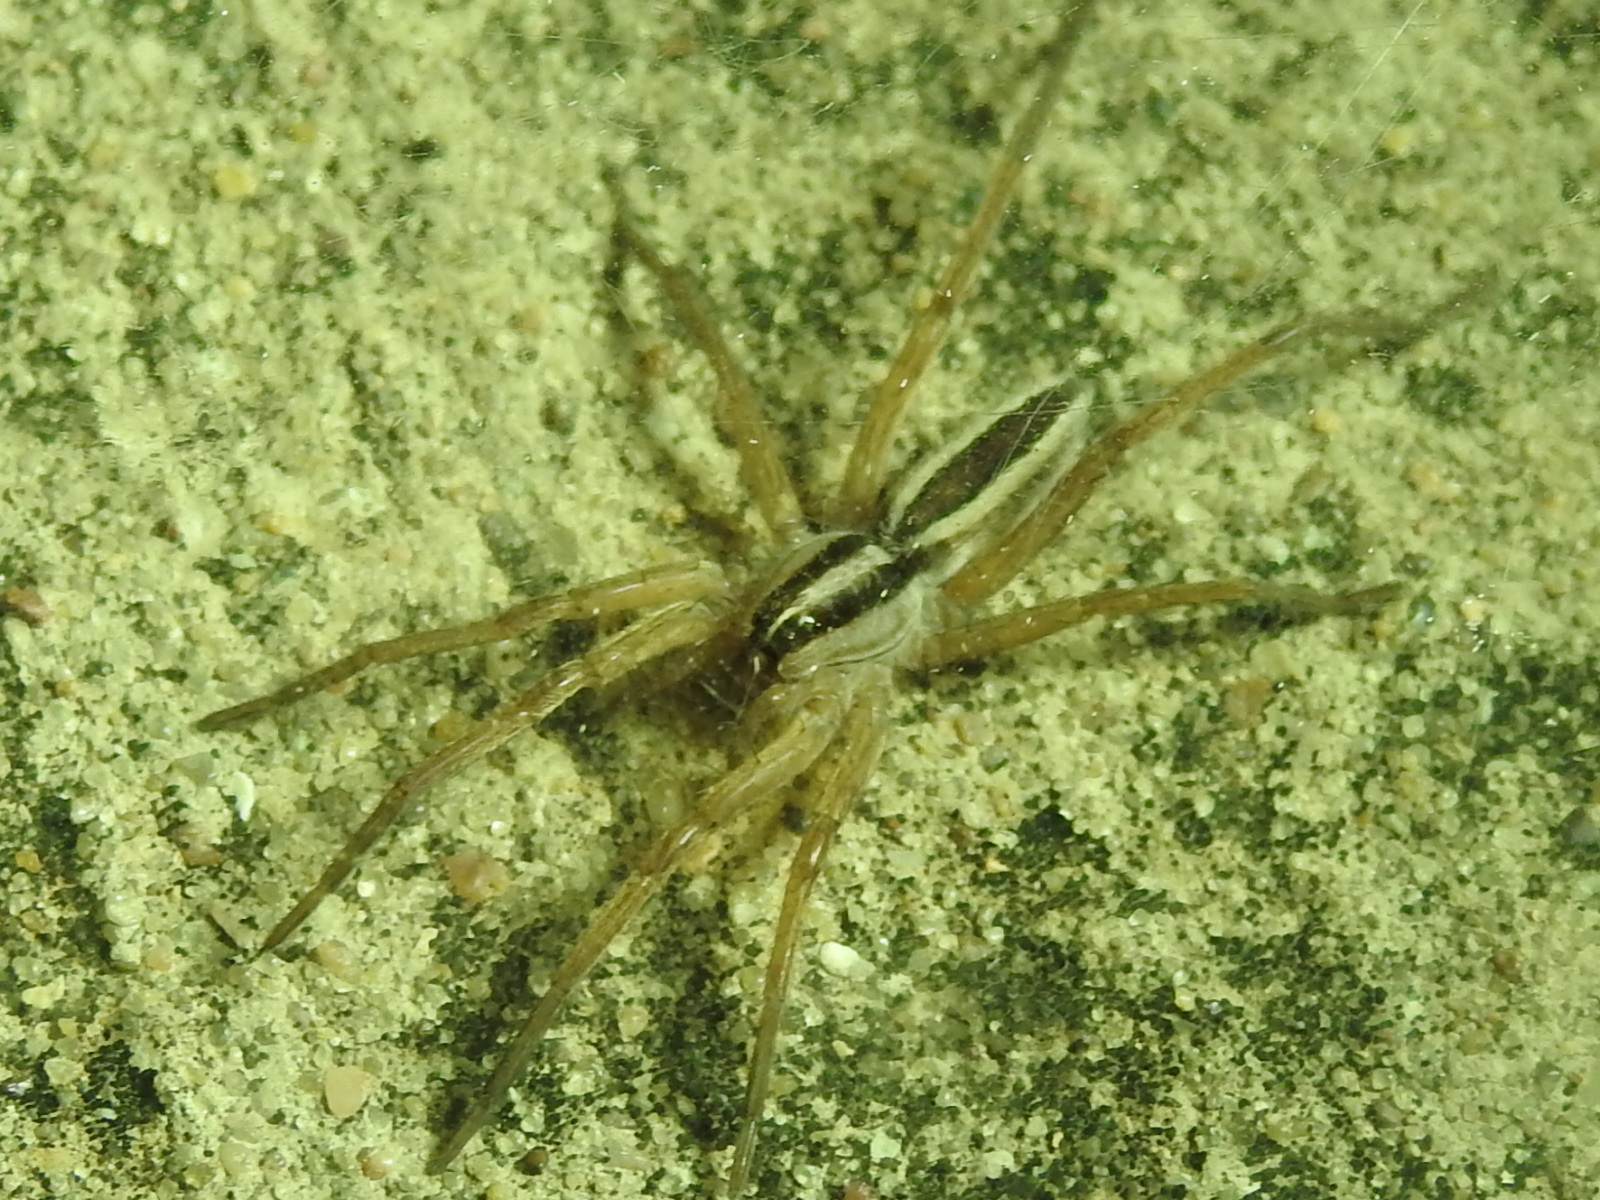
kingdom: Animalia
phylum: Arthropoda
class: Arachnida
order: Araneae
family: Lycosidae
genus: Rabidosa
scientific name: Rabidosa punctulata
